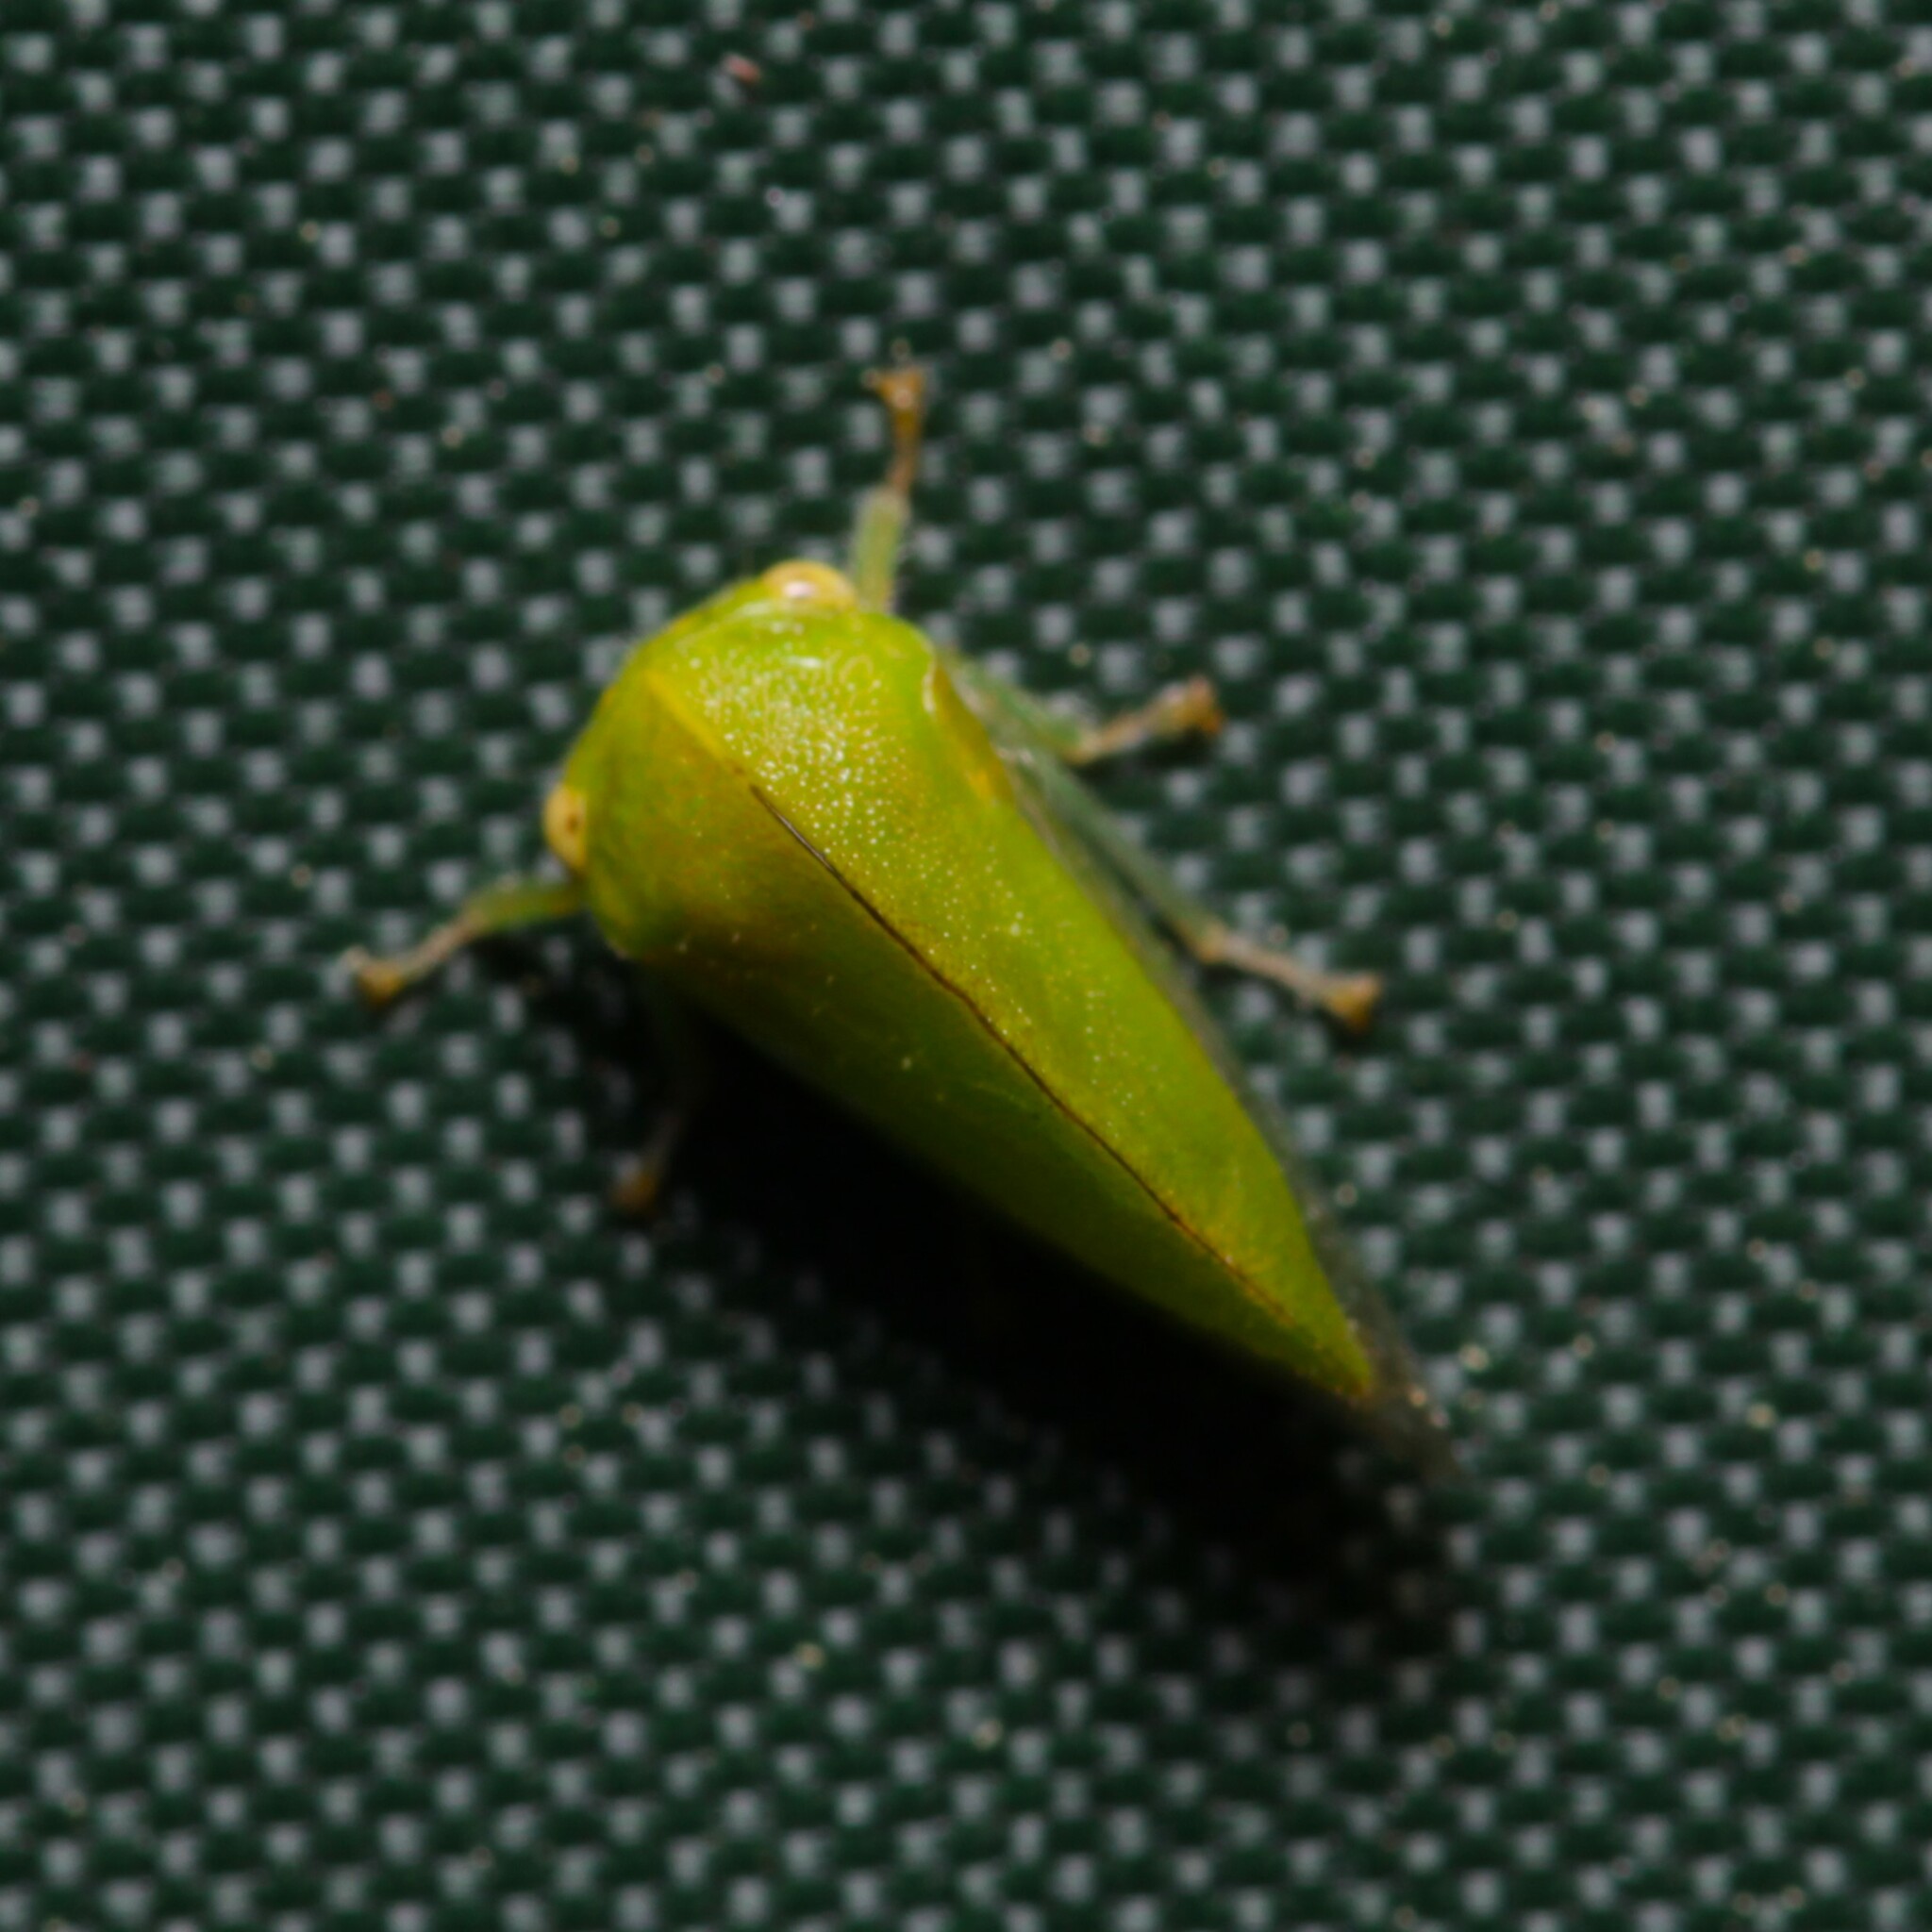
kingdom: Animalia
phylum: Arthropoda
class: Insecta
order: Hemiptera
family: Membracidae
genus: Atymna
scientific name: Atymna querci
